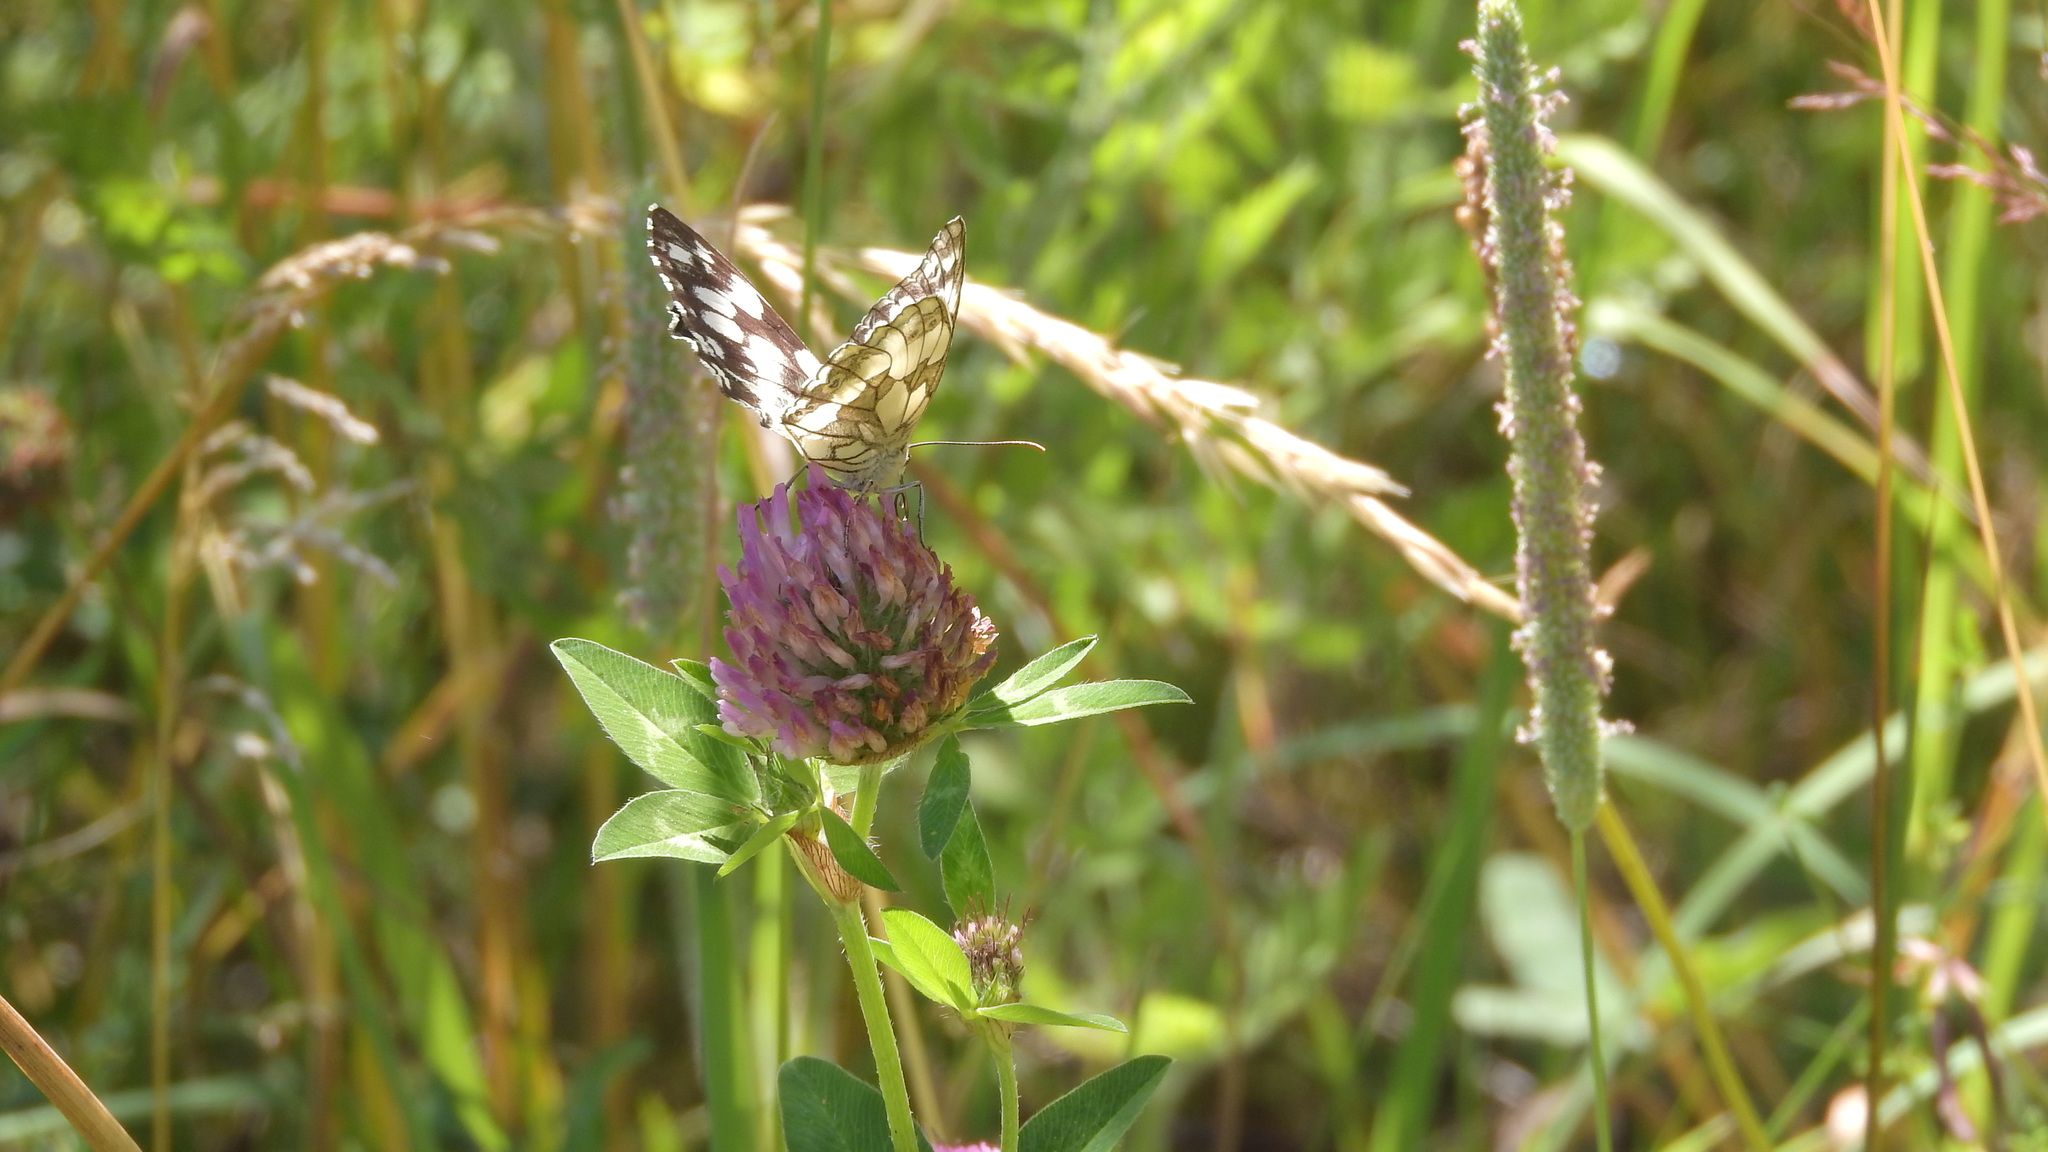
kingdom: Animalia
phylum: Arthropoda
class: Insecta
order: Lepidoptera
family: Nymphalidae
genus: Melanargia
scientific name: Melanargia galathea
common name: Marbled white
